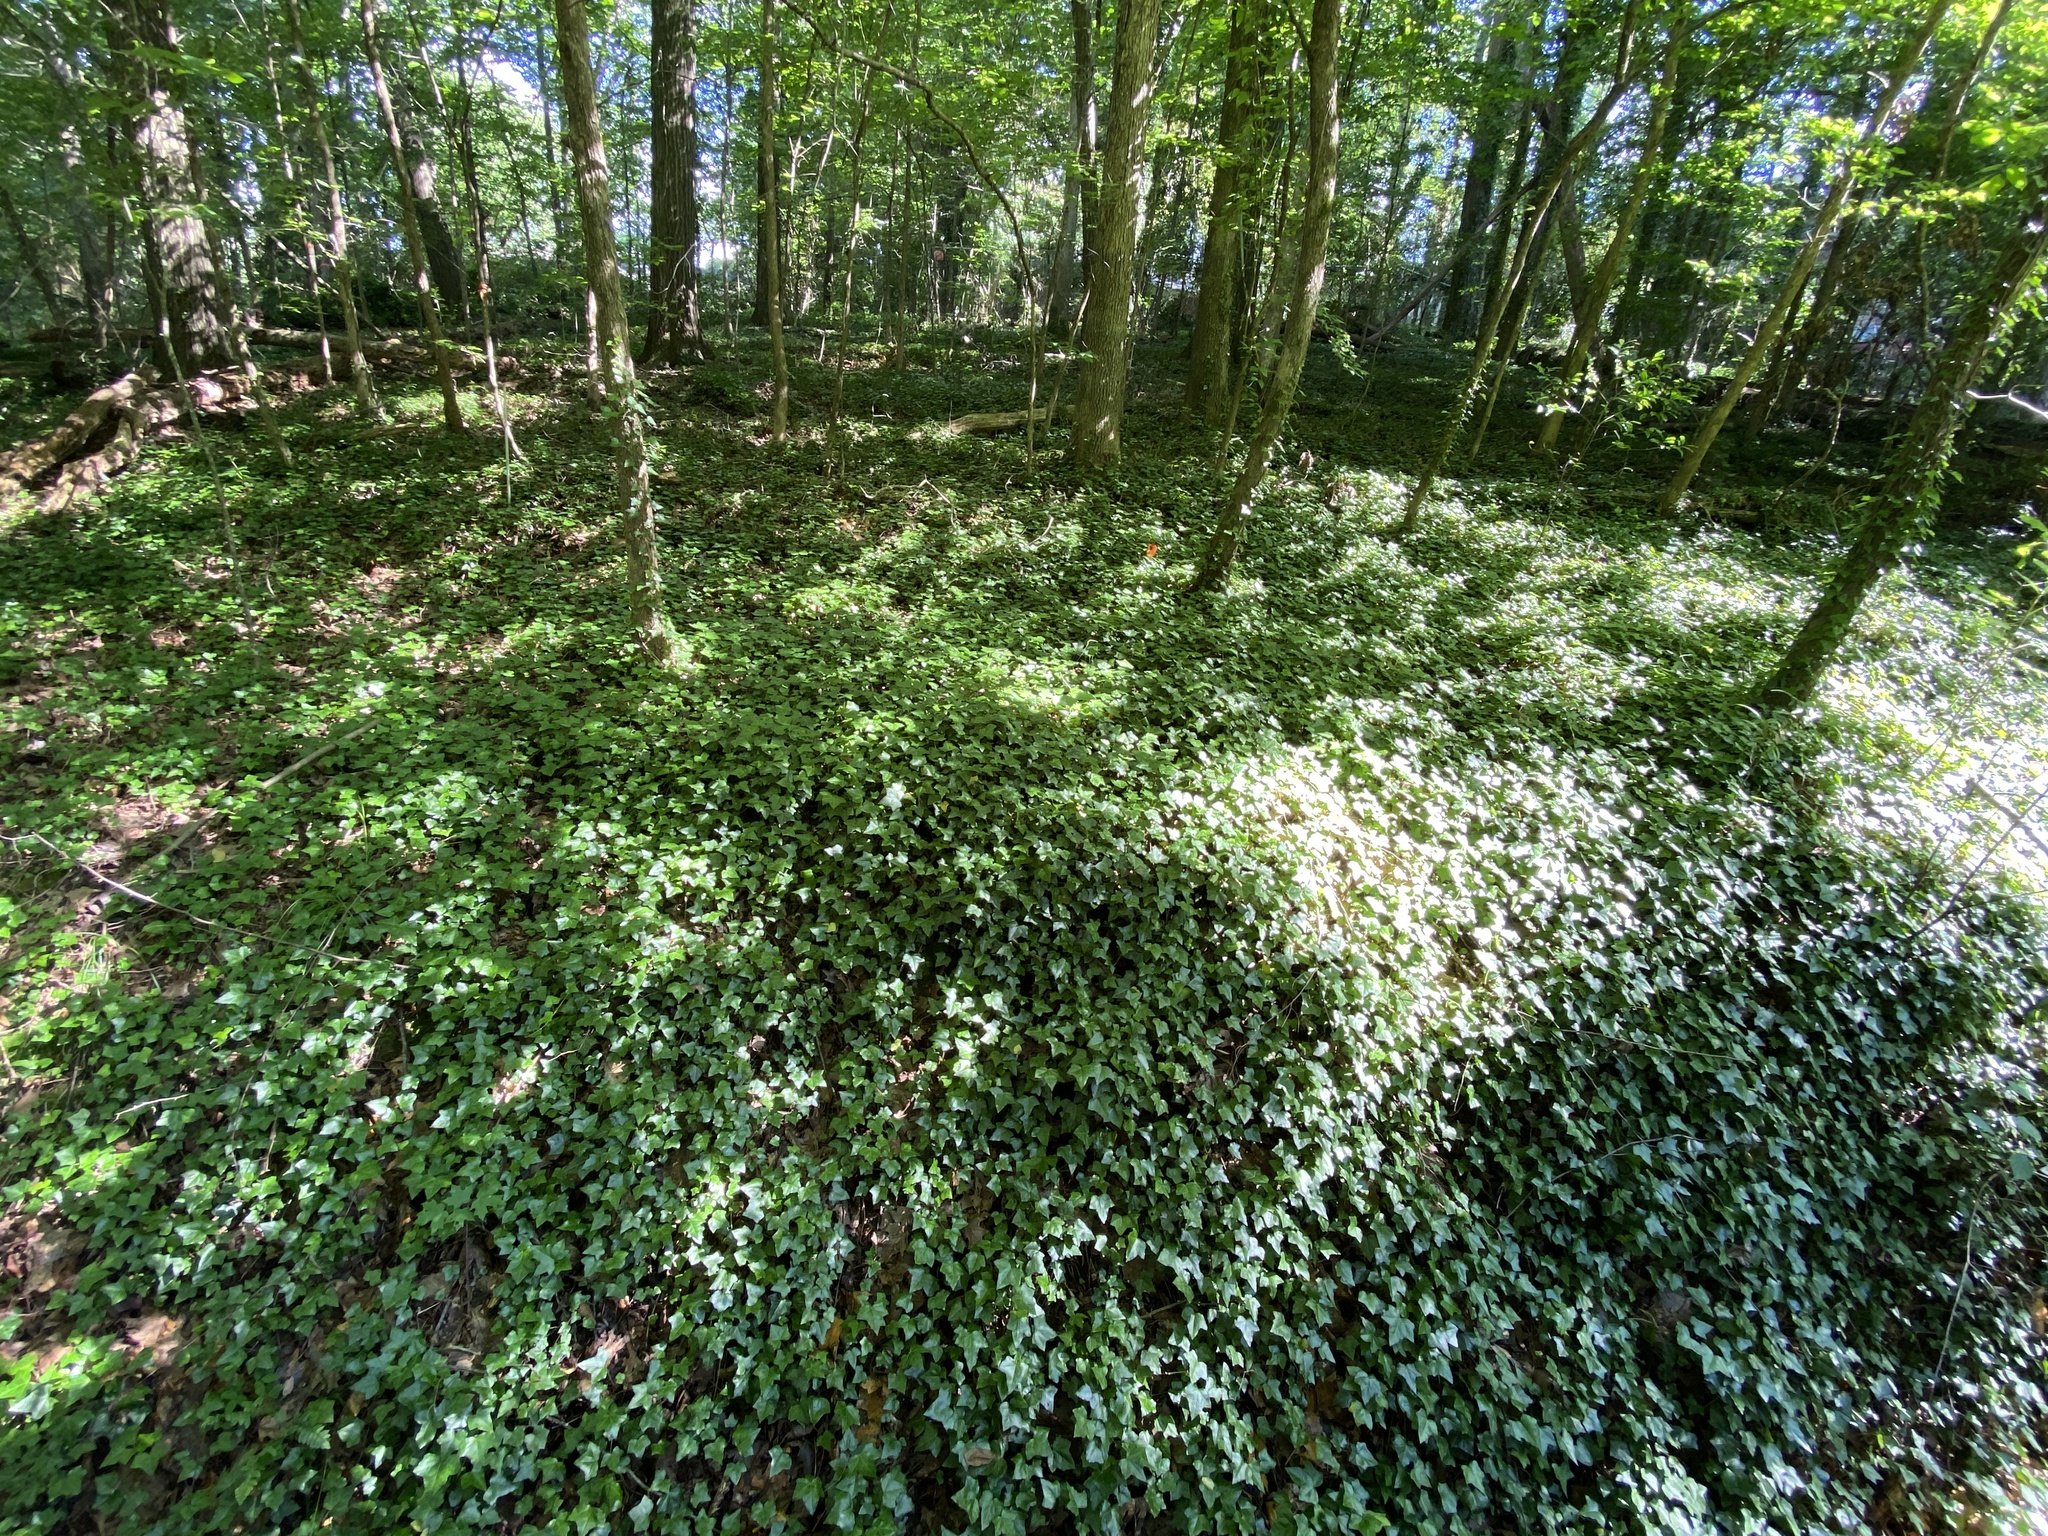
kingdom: Plantae
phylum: Tracheophyta
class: Magnoliopsida
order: Apiales
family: Araliaceae
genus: Hedera
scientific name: Hedera helix
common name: Ivy
